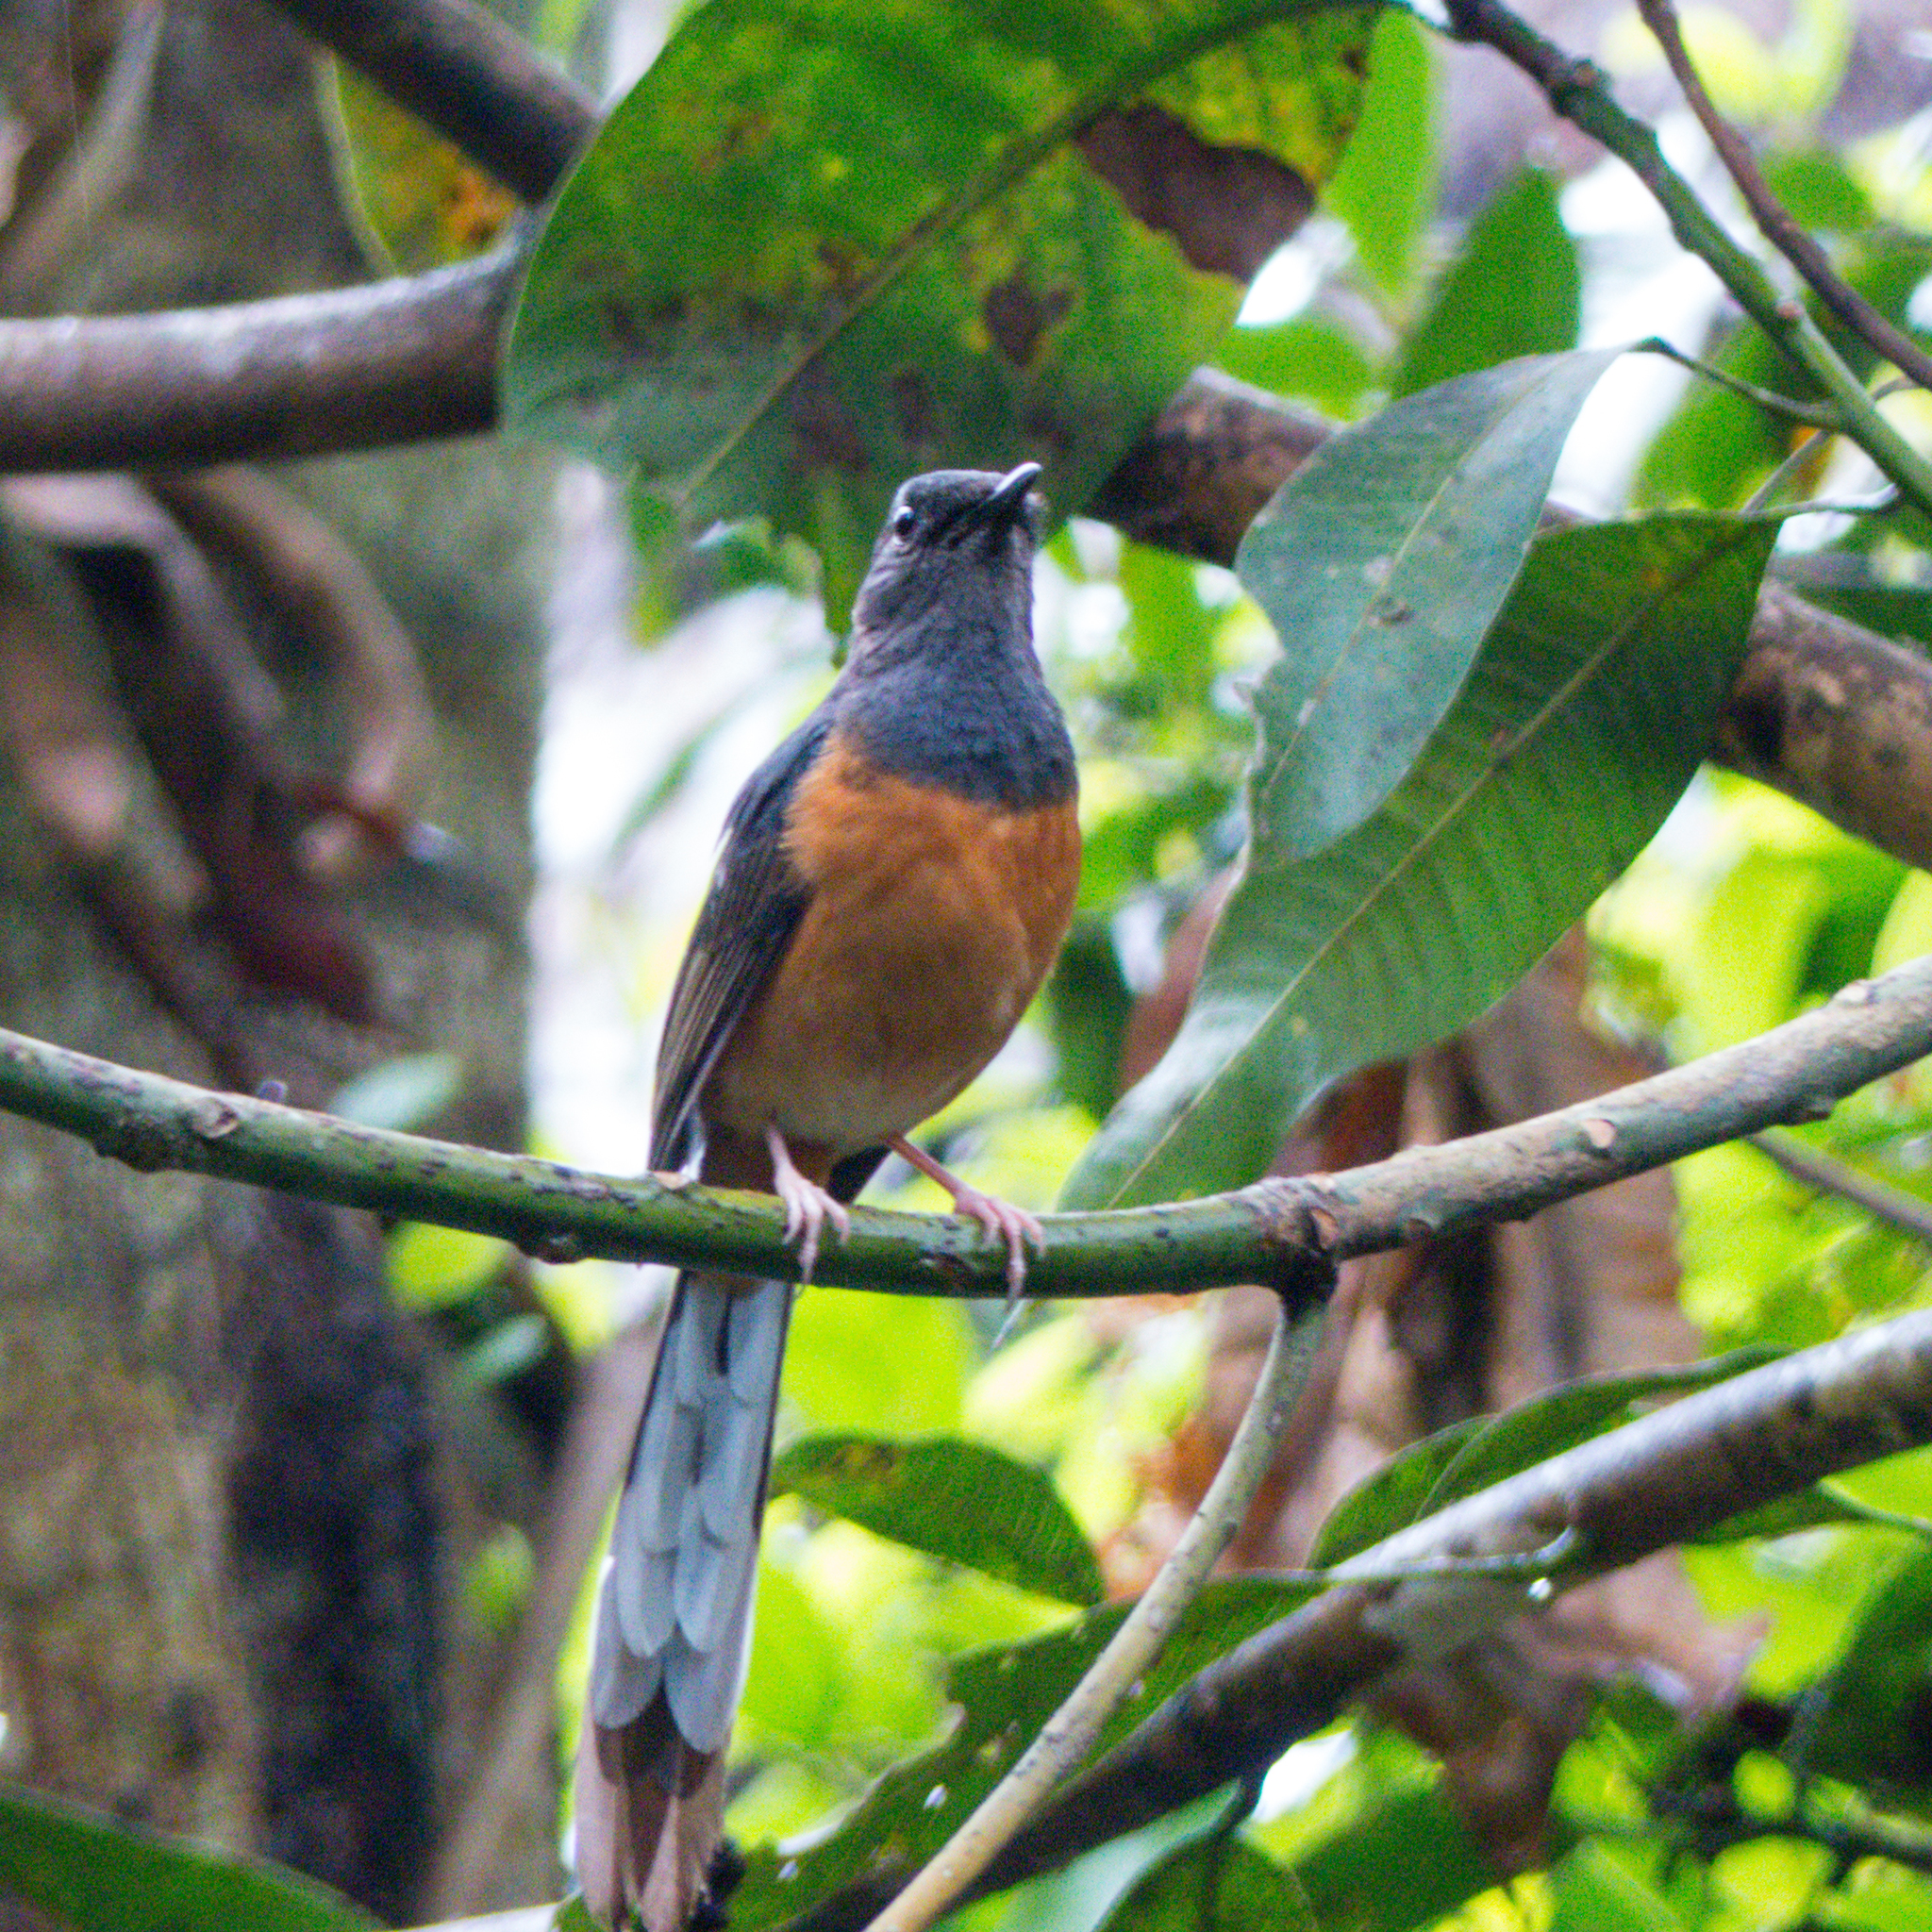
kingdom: Animalia
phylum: Chordata
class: Aves
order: Passeriformes
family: Muscicapidae
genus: Copsychus
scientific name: Copsychus malabaricus
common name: White-rumped shama
